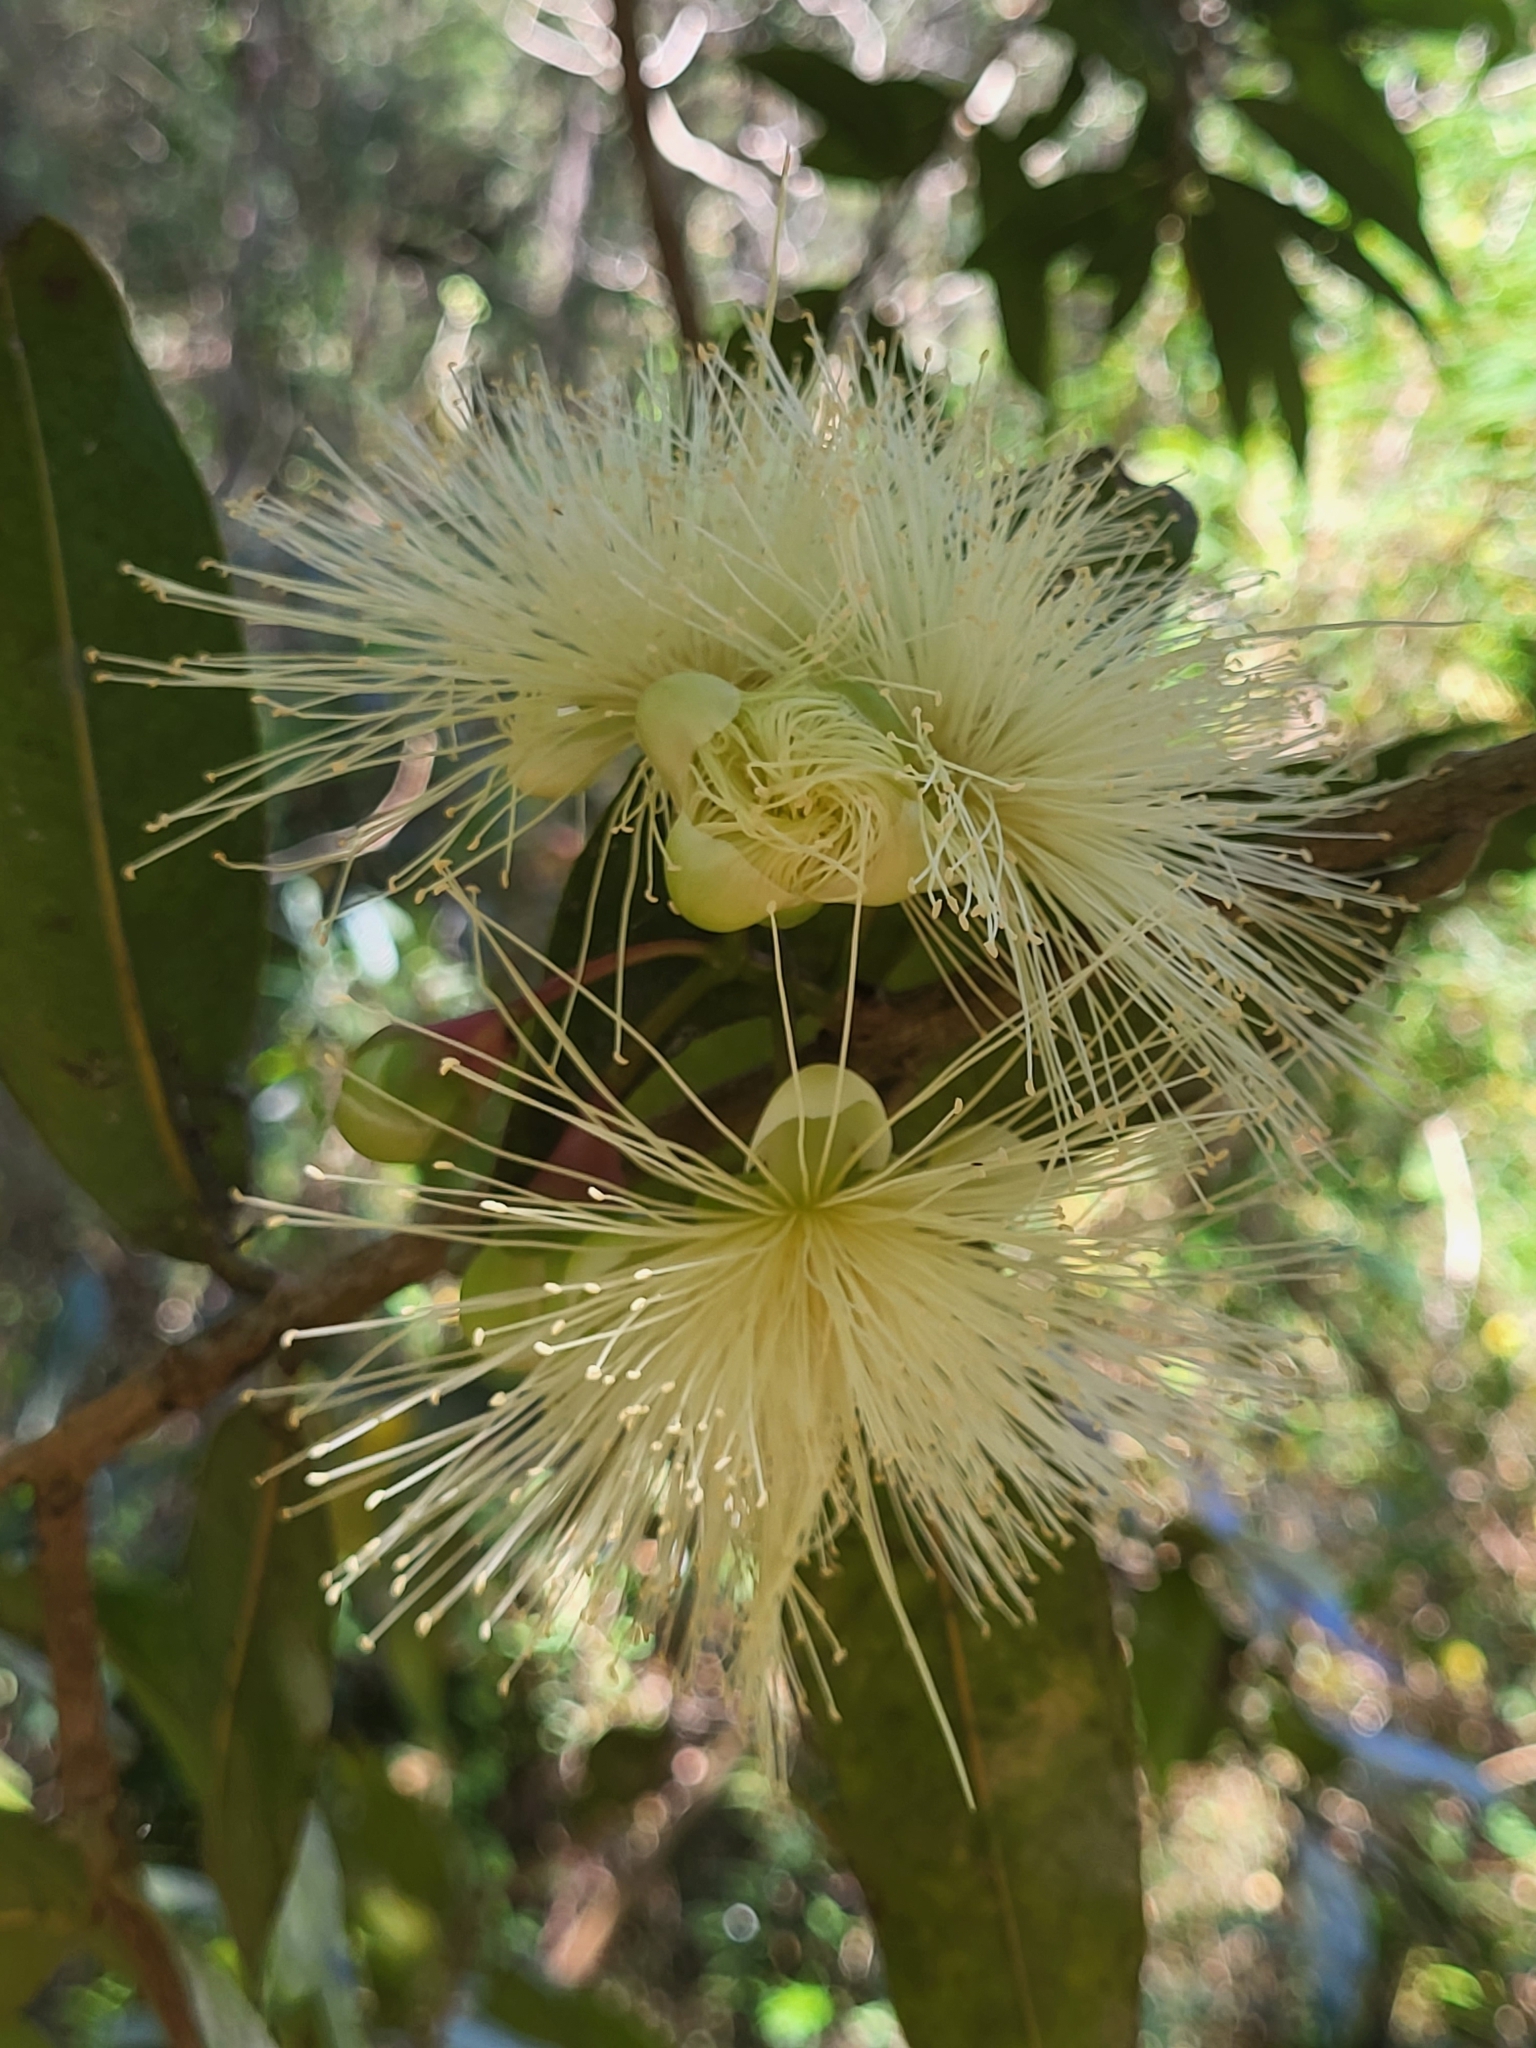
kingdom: Plantae
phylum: Tracheophyta
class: Magnoliopsida
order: Myrtales
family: Myrtaceae
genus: Syzygium
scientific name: Syzygium jambos
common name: Malabar plum
